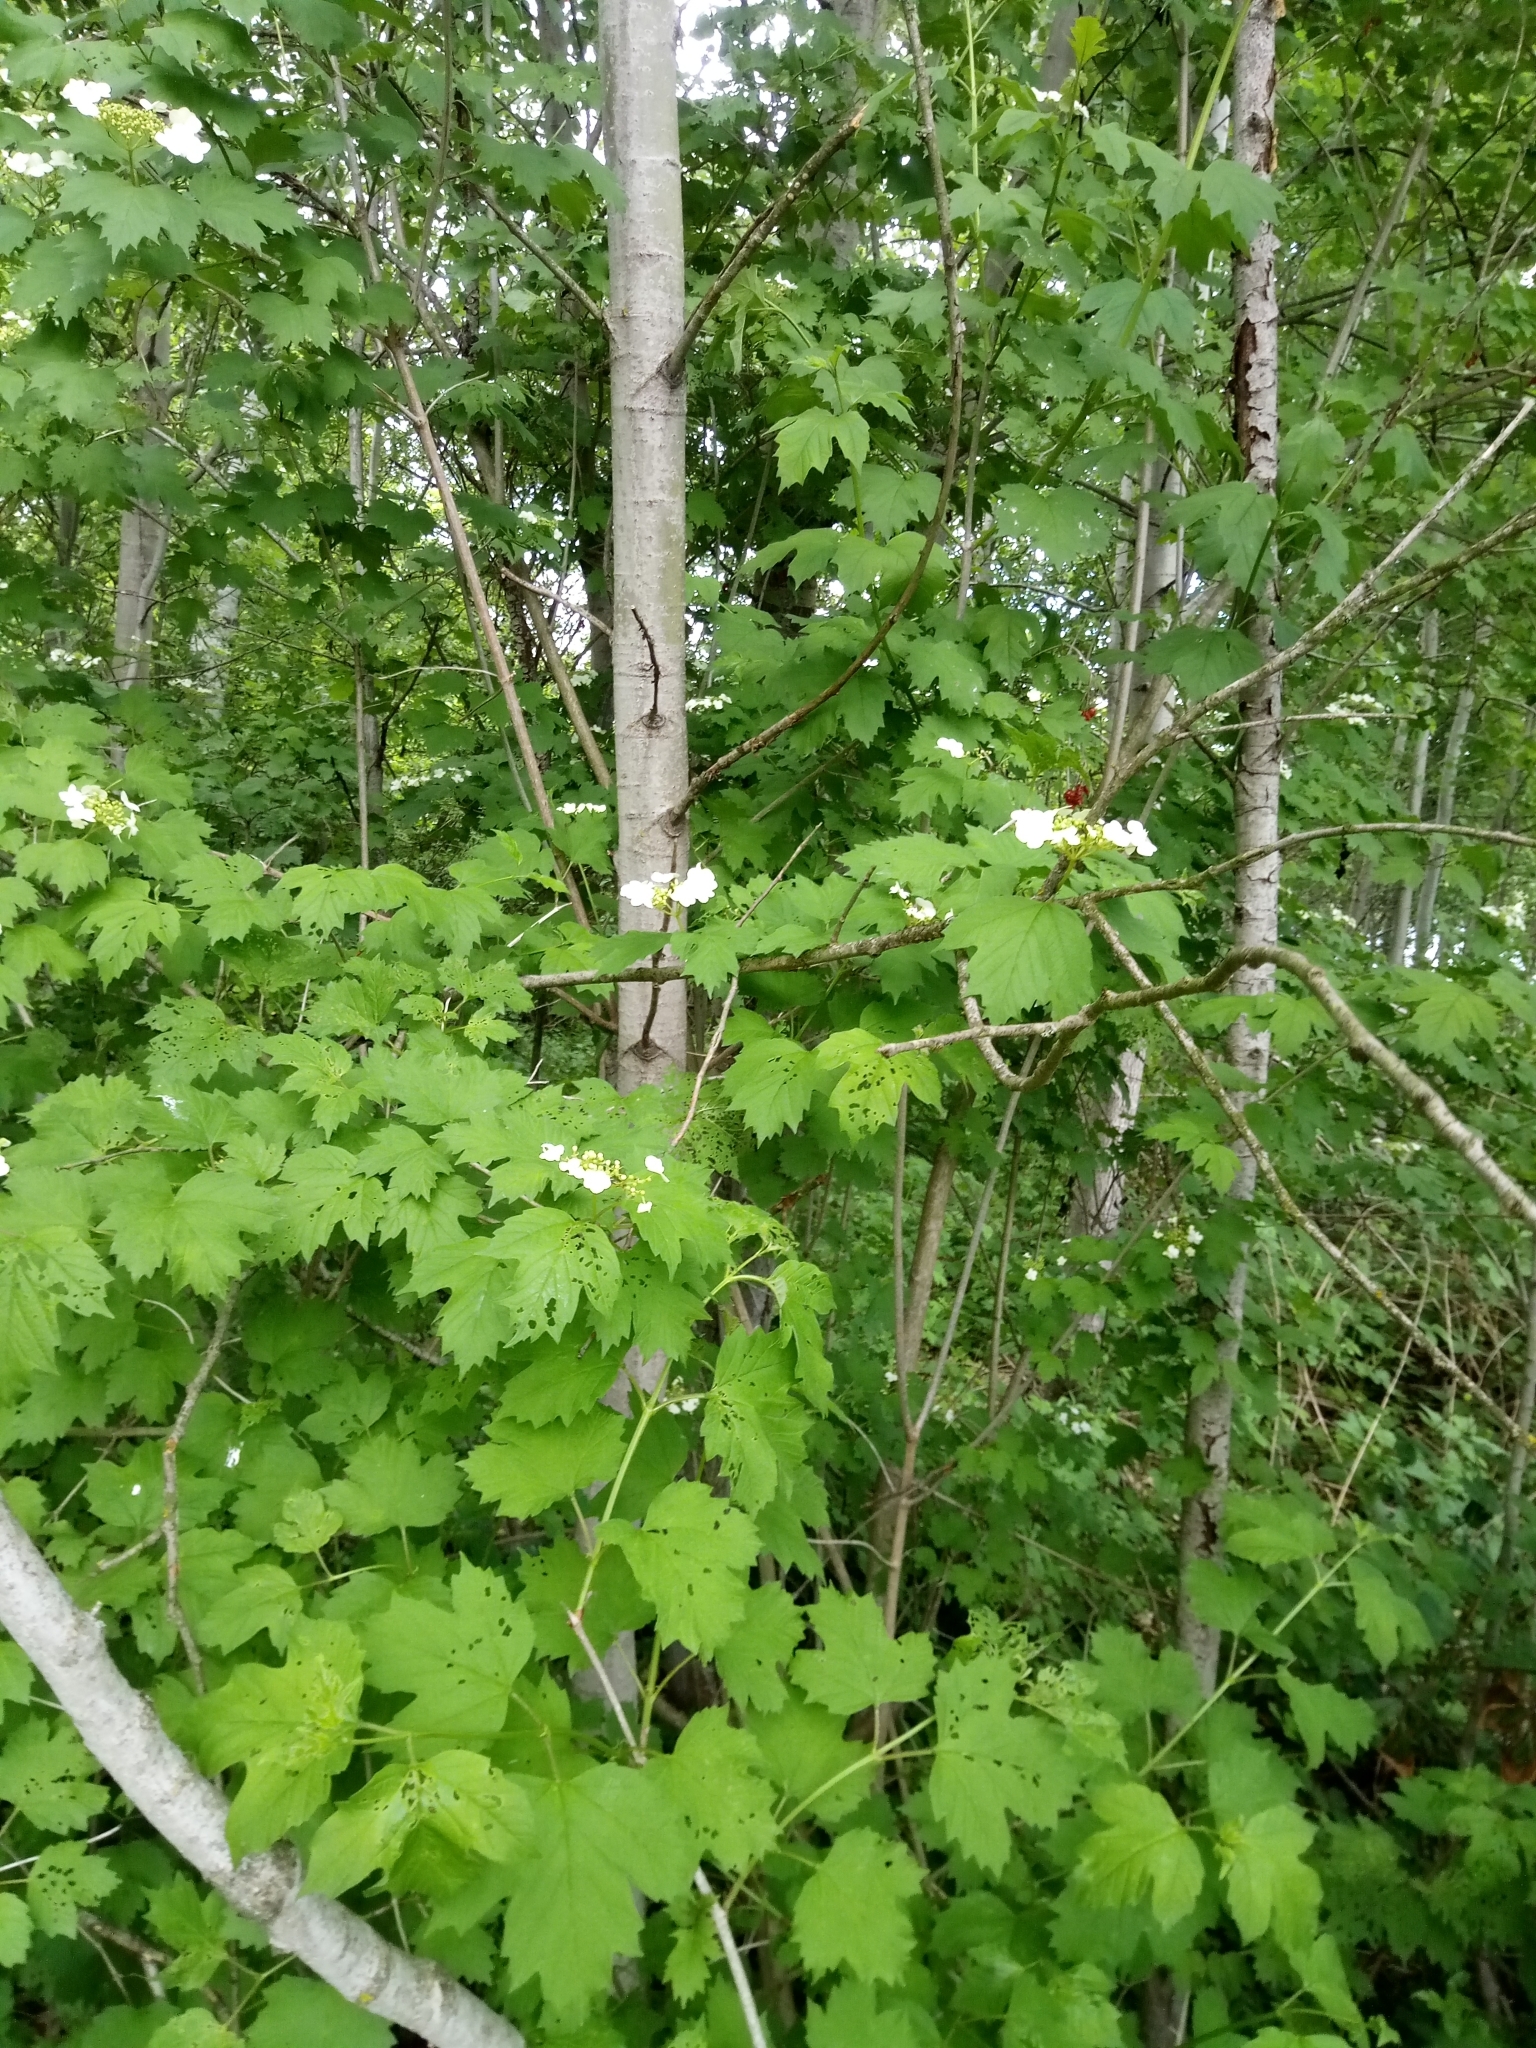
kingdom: Plantae
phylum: Tracheophyta
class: Magnoliopsida
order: Dipsacales
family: Viburnaceae
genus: Viburnum
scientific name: Viburnum opulus
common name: Guelder-rose
